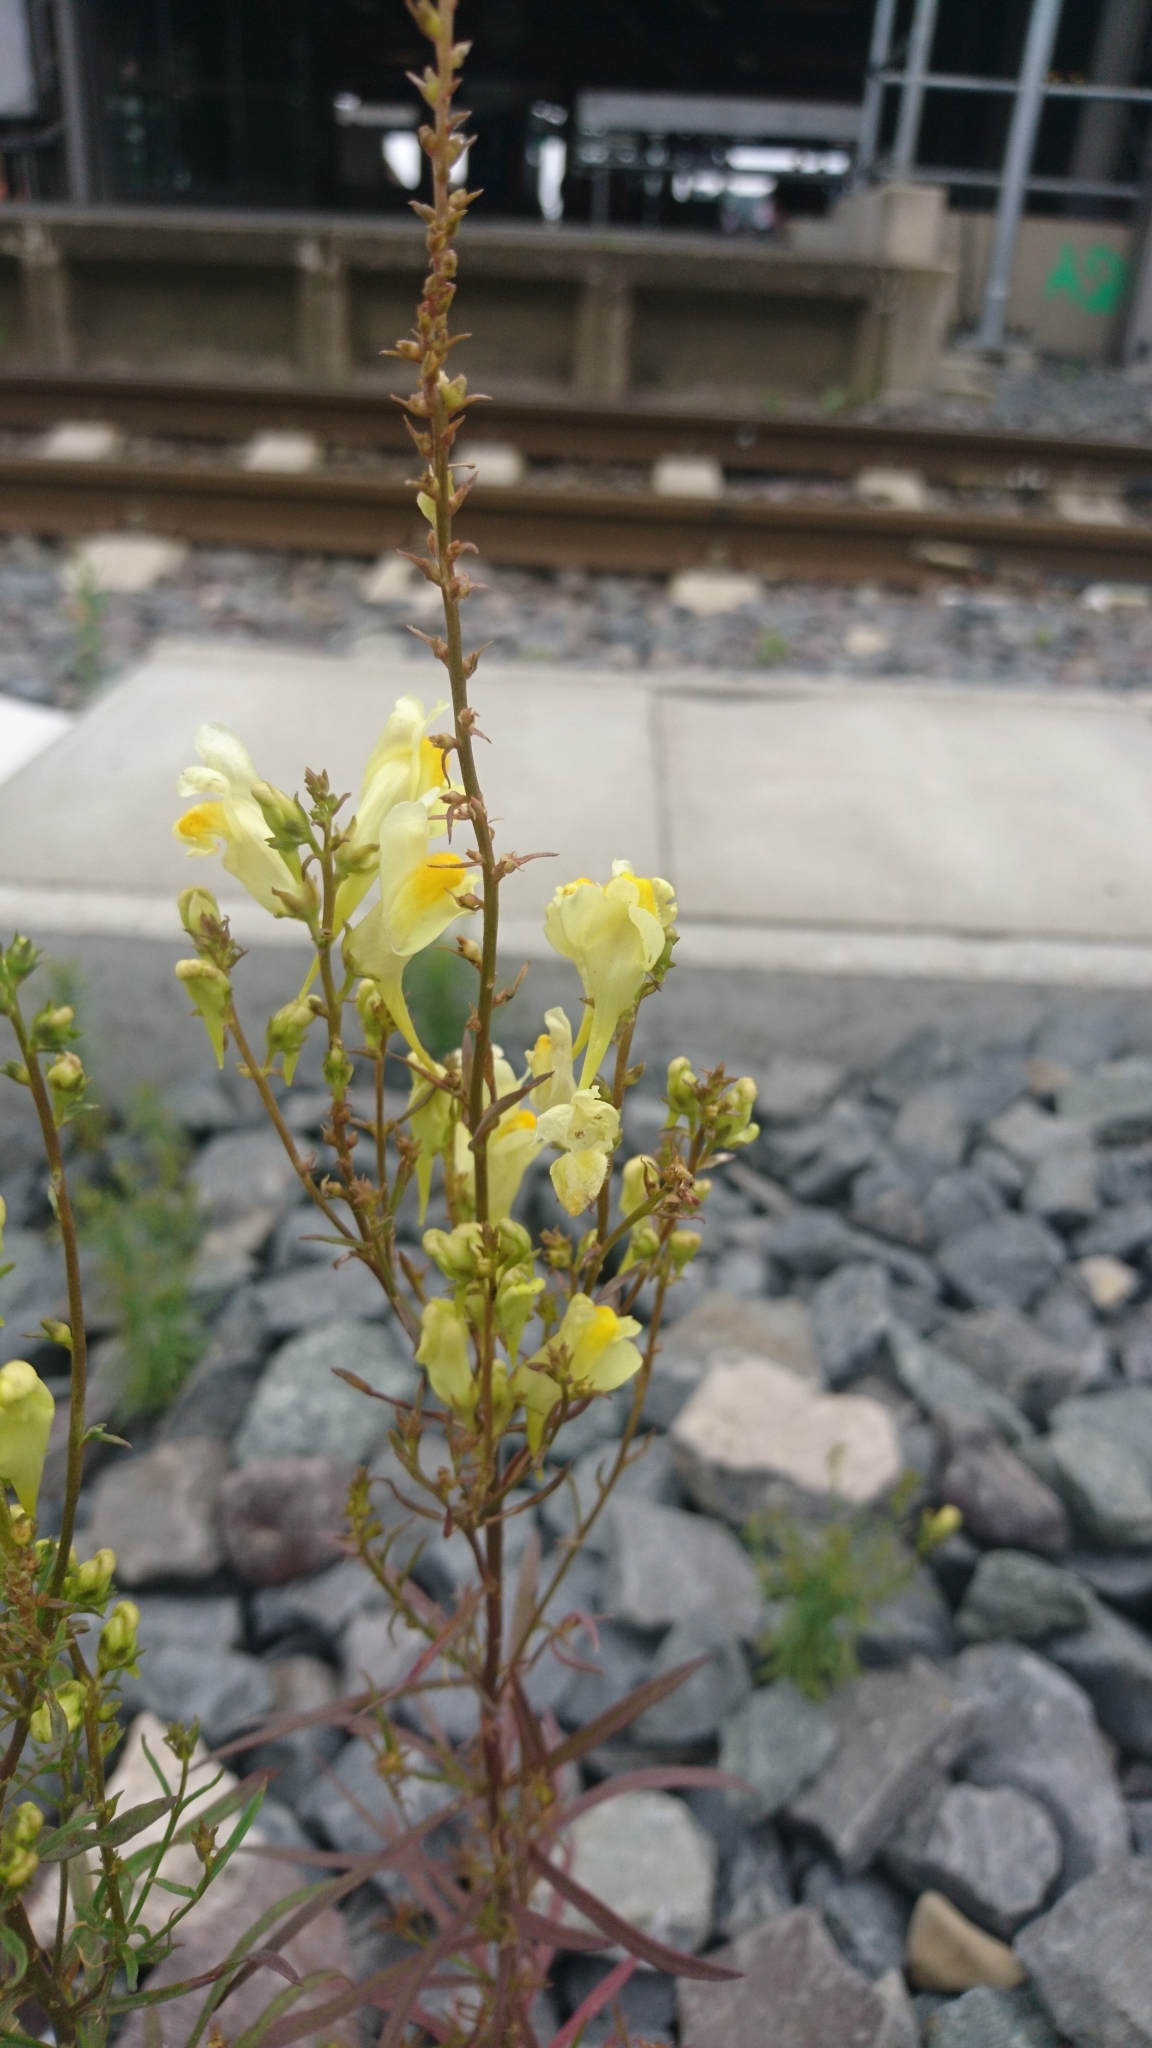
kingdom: Plantae
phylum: Tracheophyta
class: Magnoliopsida
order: Lamiales
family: Plantaginaceae
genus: Linaria
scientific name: Linaria vulgaris
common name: Butter and eggs
